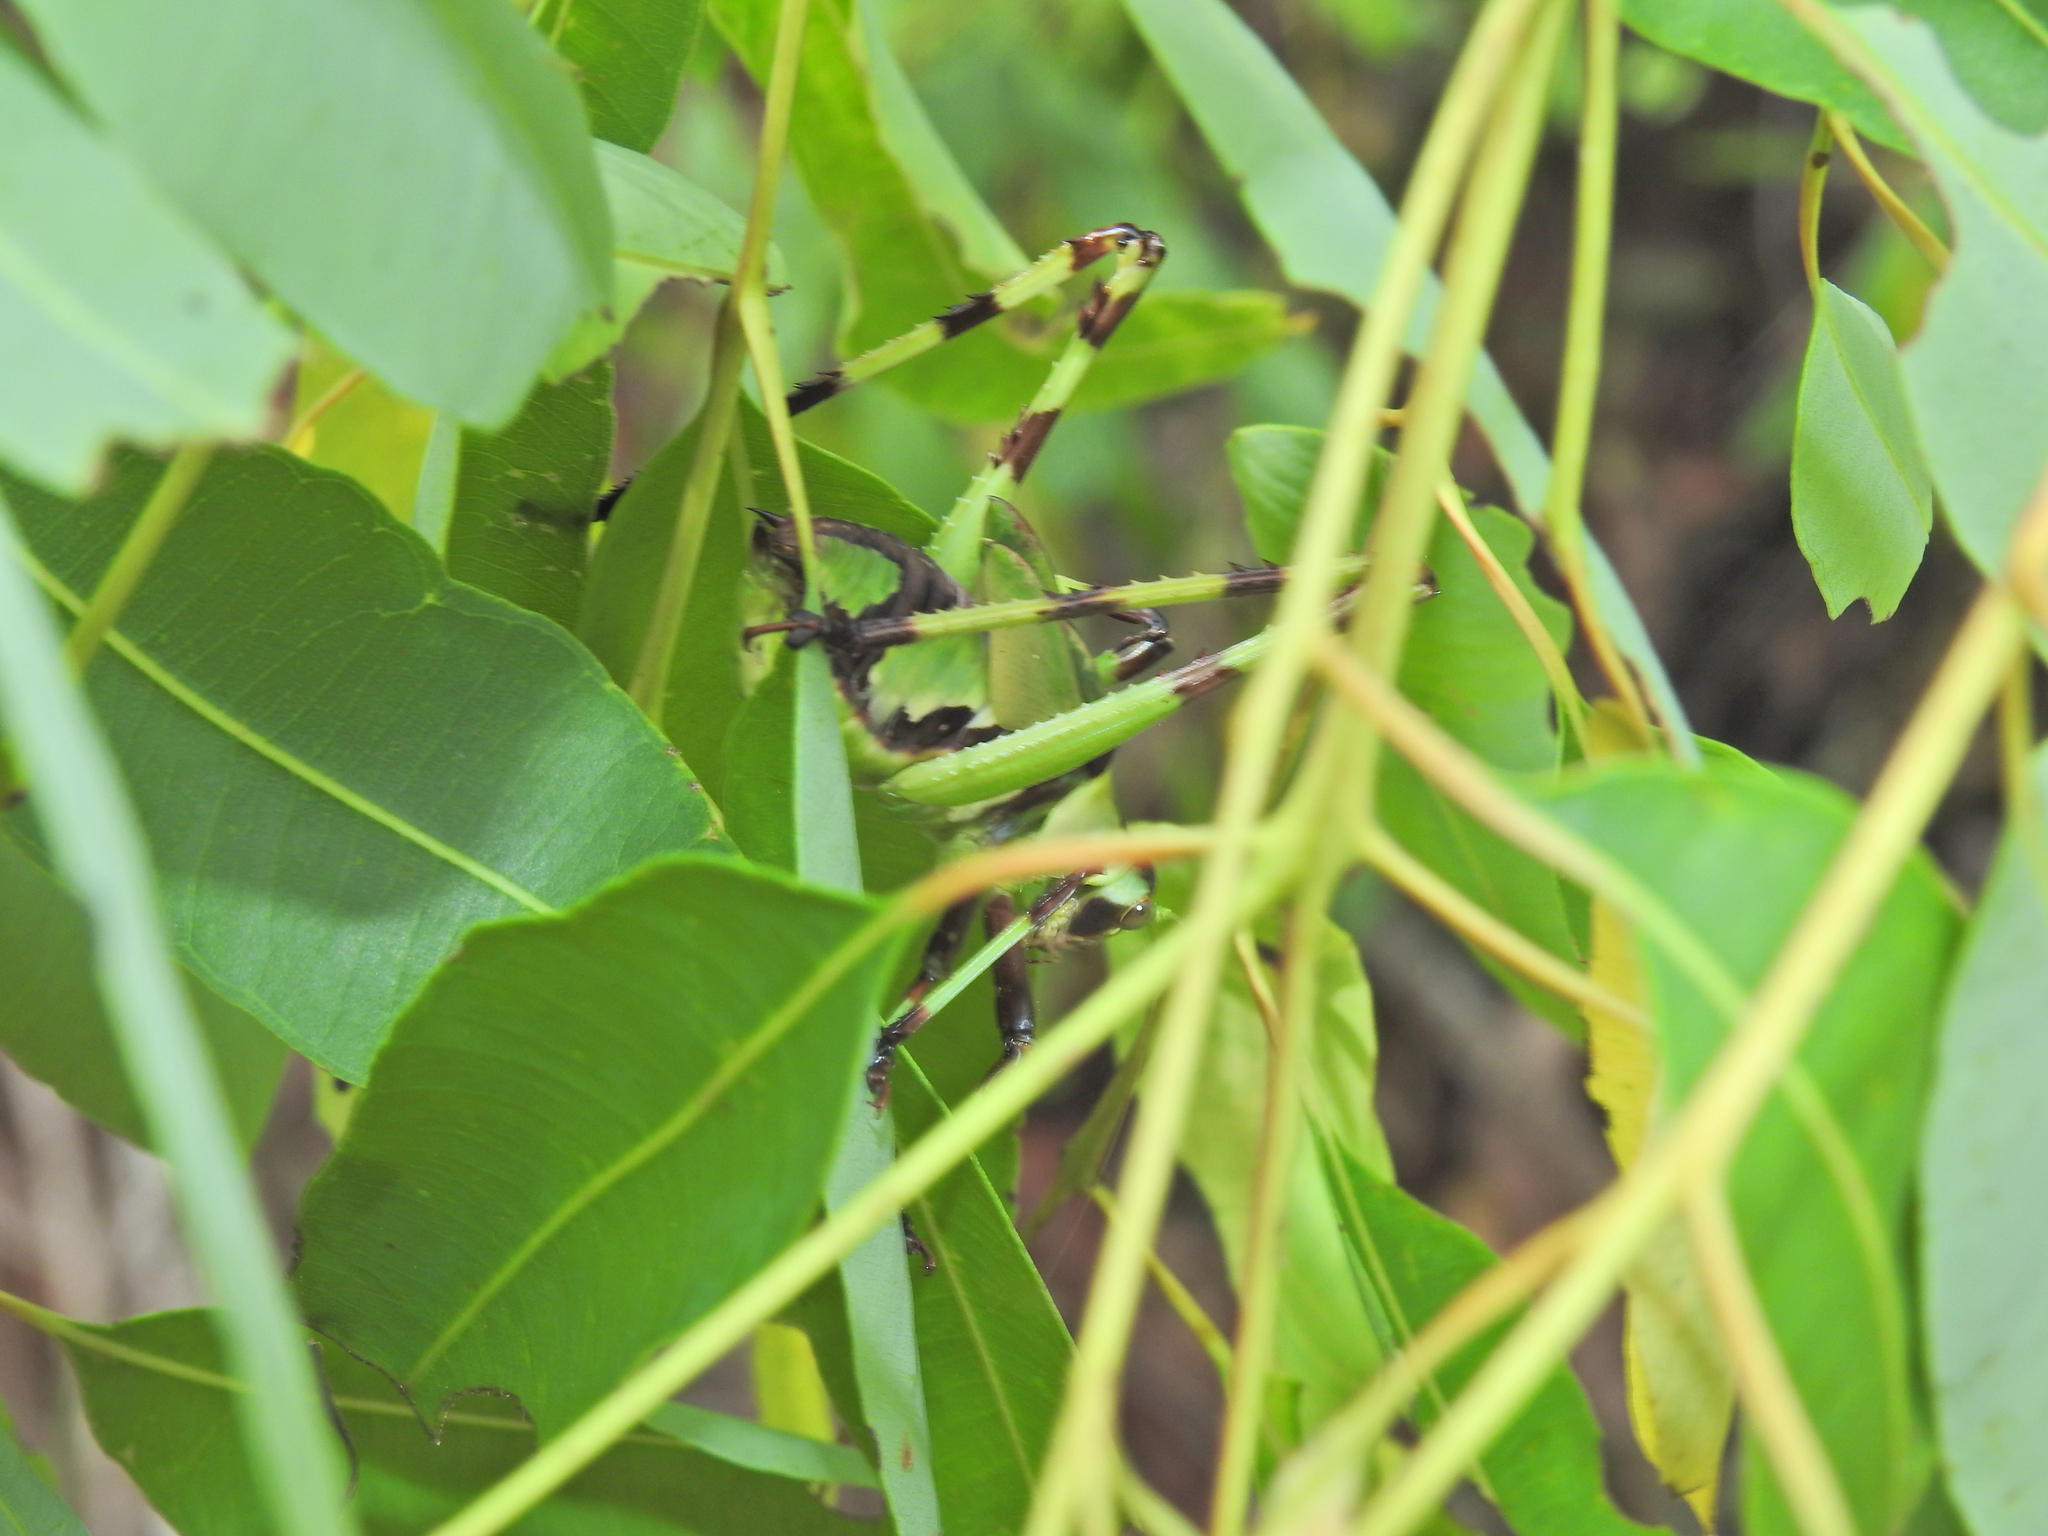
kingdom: Animalia
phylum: Arthropoda
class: Insecta
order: Orthoptera
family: Tettigoniidae
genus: Ephippitytha
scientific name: Ephippitytha trigintiduoguttata
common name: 32-spotted katydid
